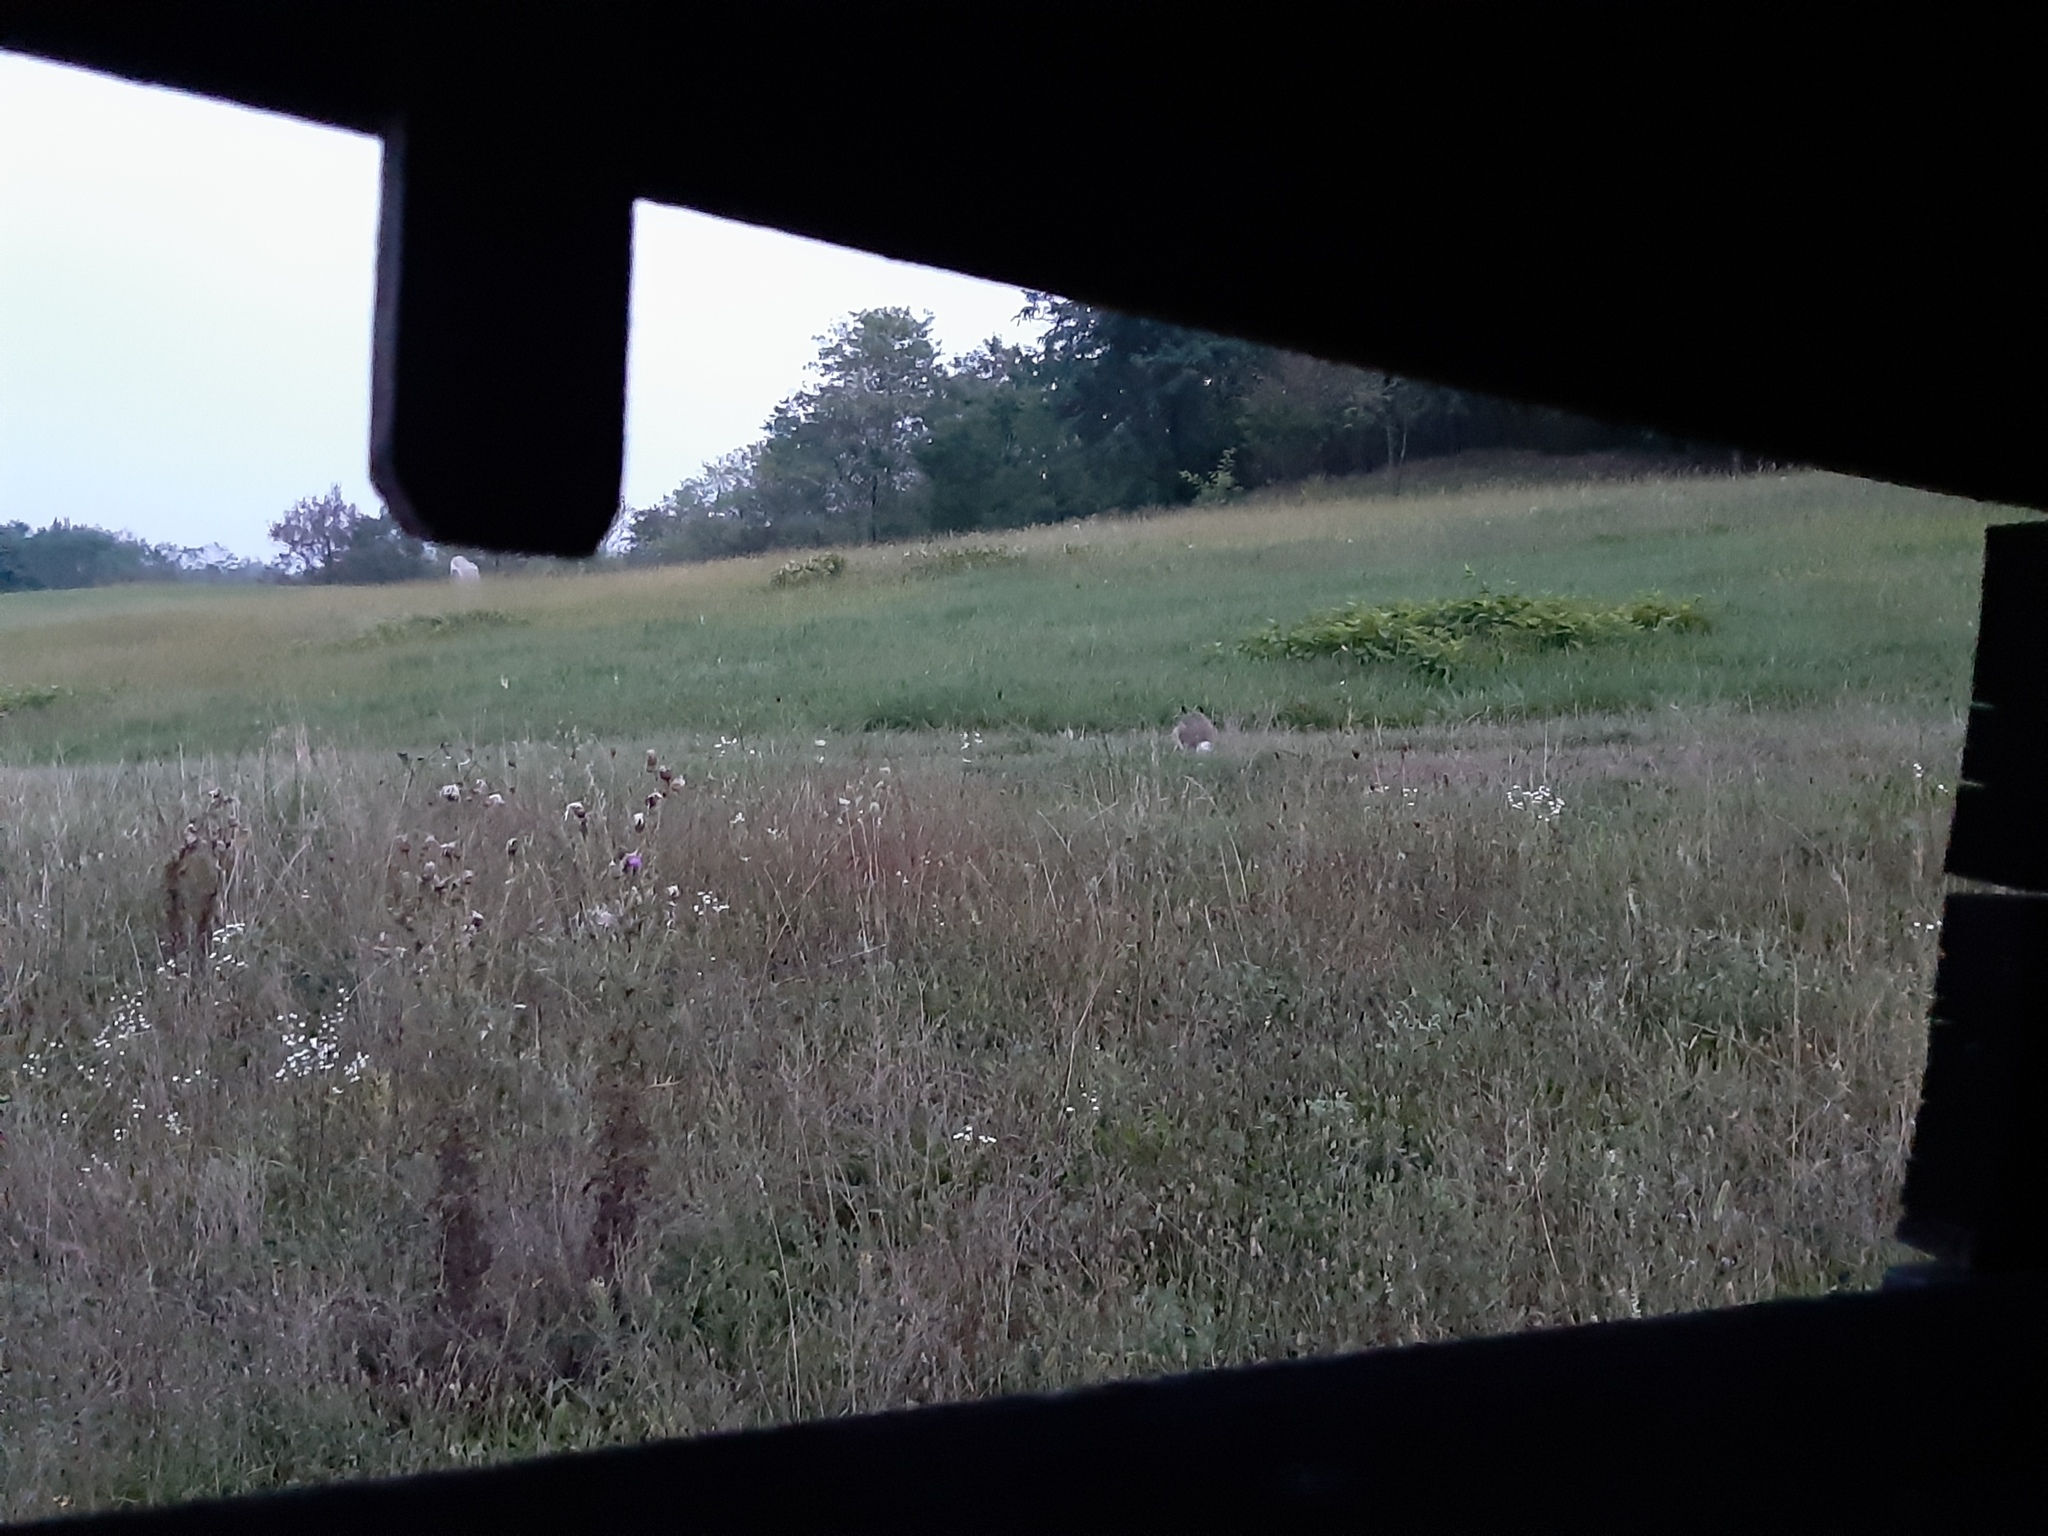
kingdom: Animalia
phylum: Chordata
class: Mammalia
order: Lagomorpha
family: Leporidae
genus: Lepus
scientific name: Lepus europaeus
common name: European hare
